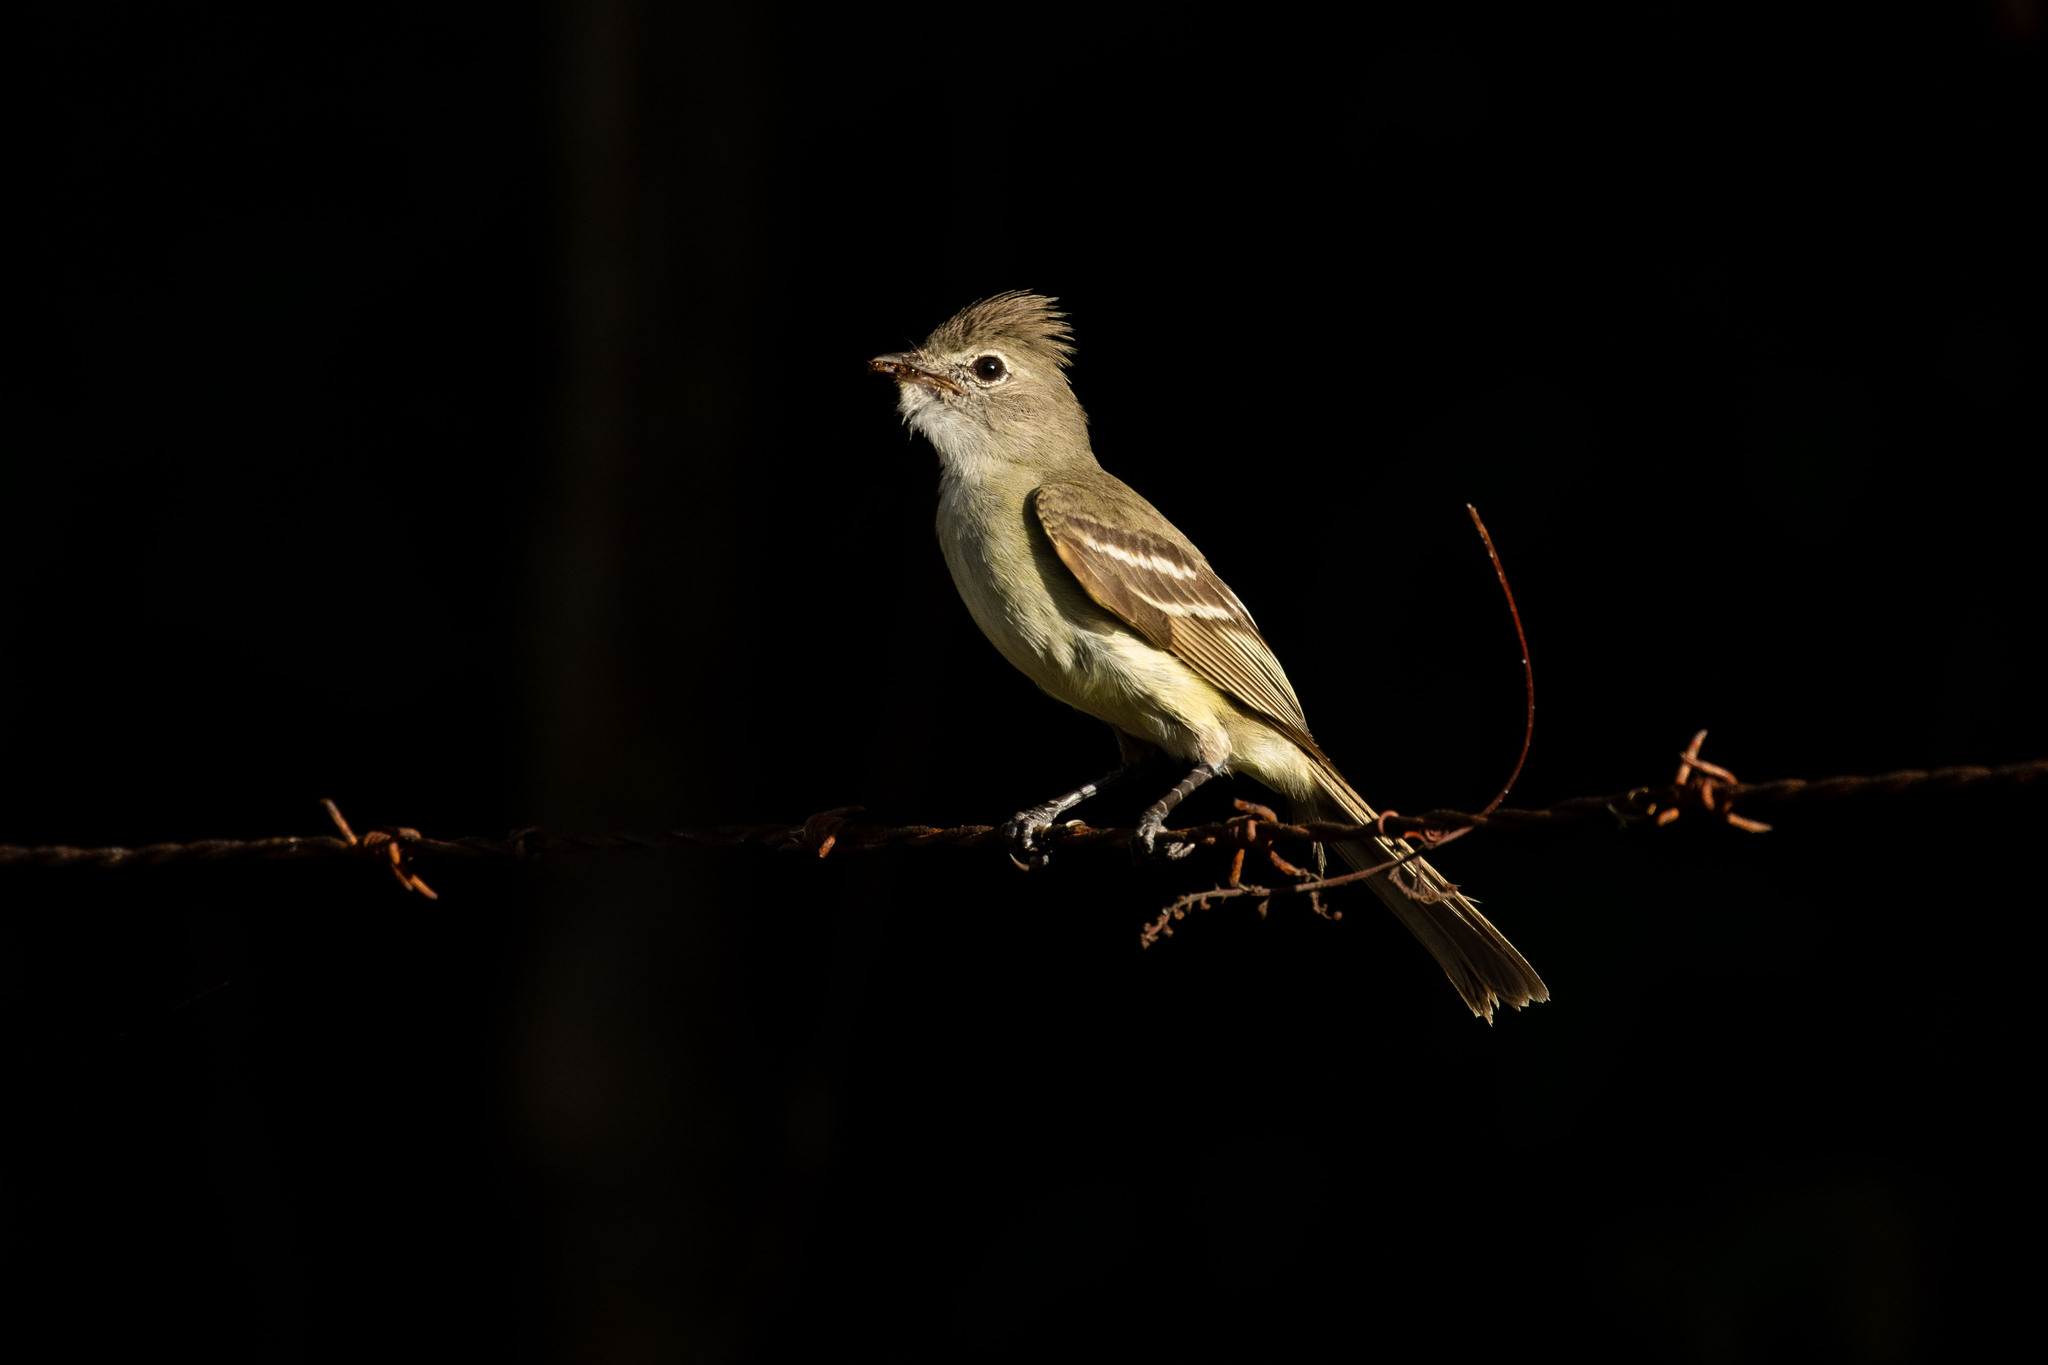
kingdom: Animalia
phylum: Chordata
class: Aves
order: Passeriformes
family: Tyrannidae
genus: Elaenia
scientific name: Elaenia flavogaster
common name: Yellow-bellied elaenia
